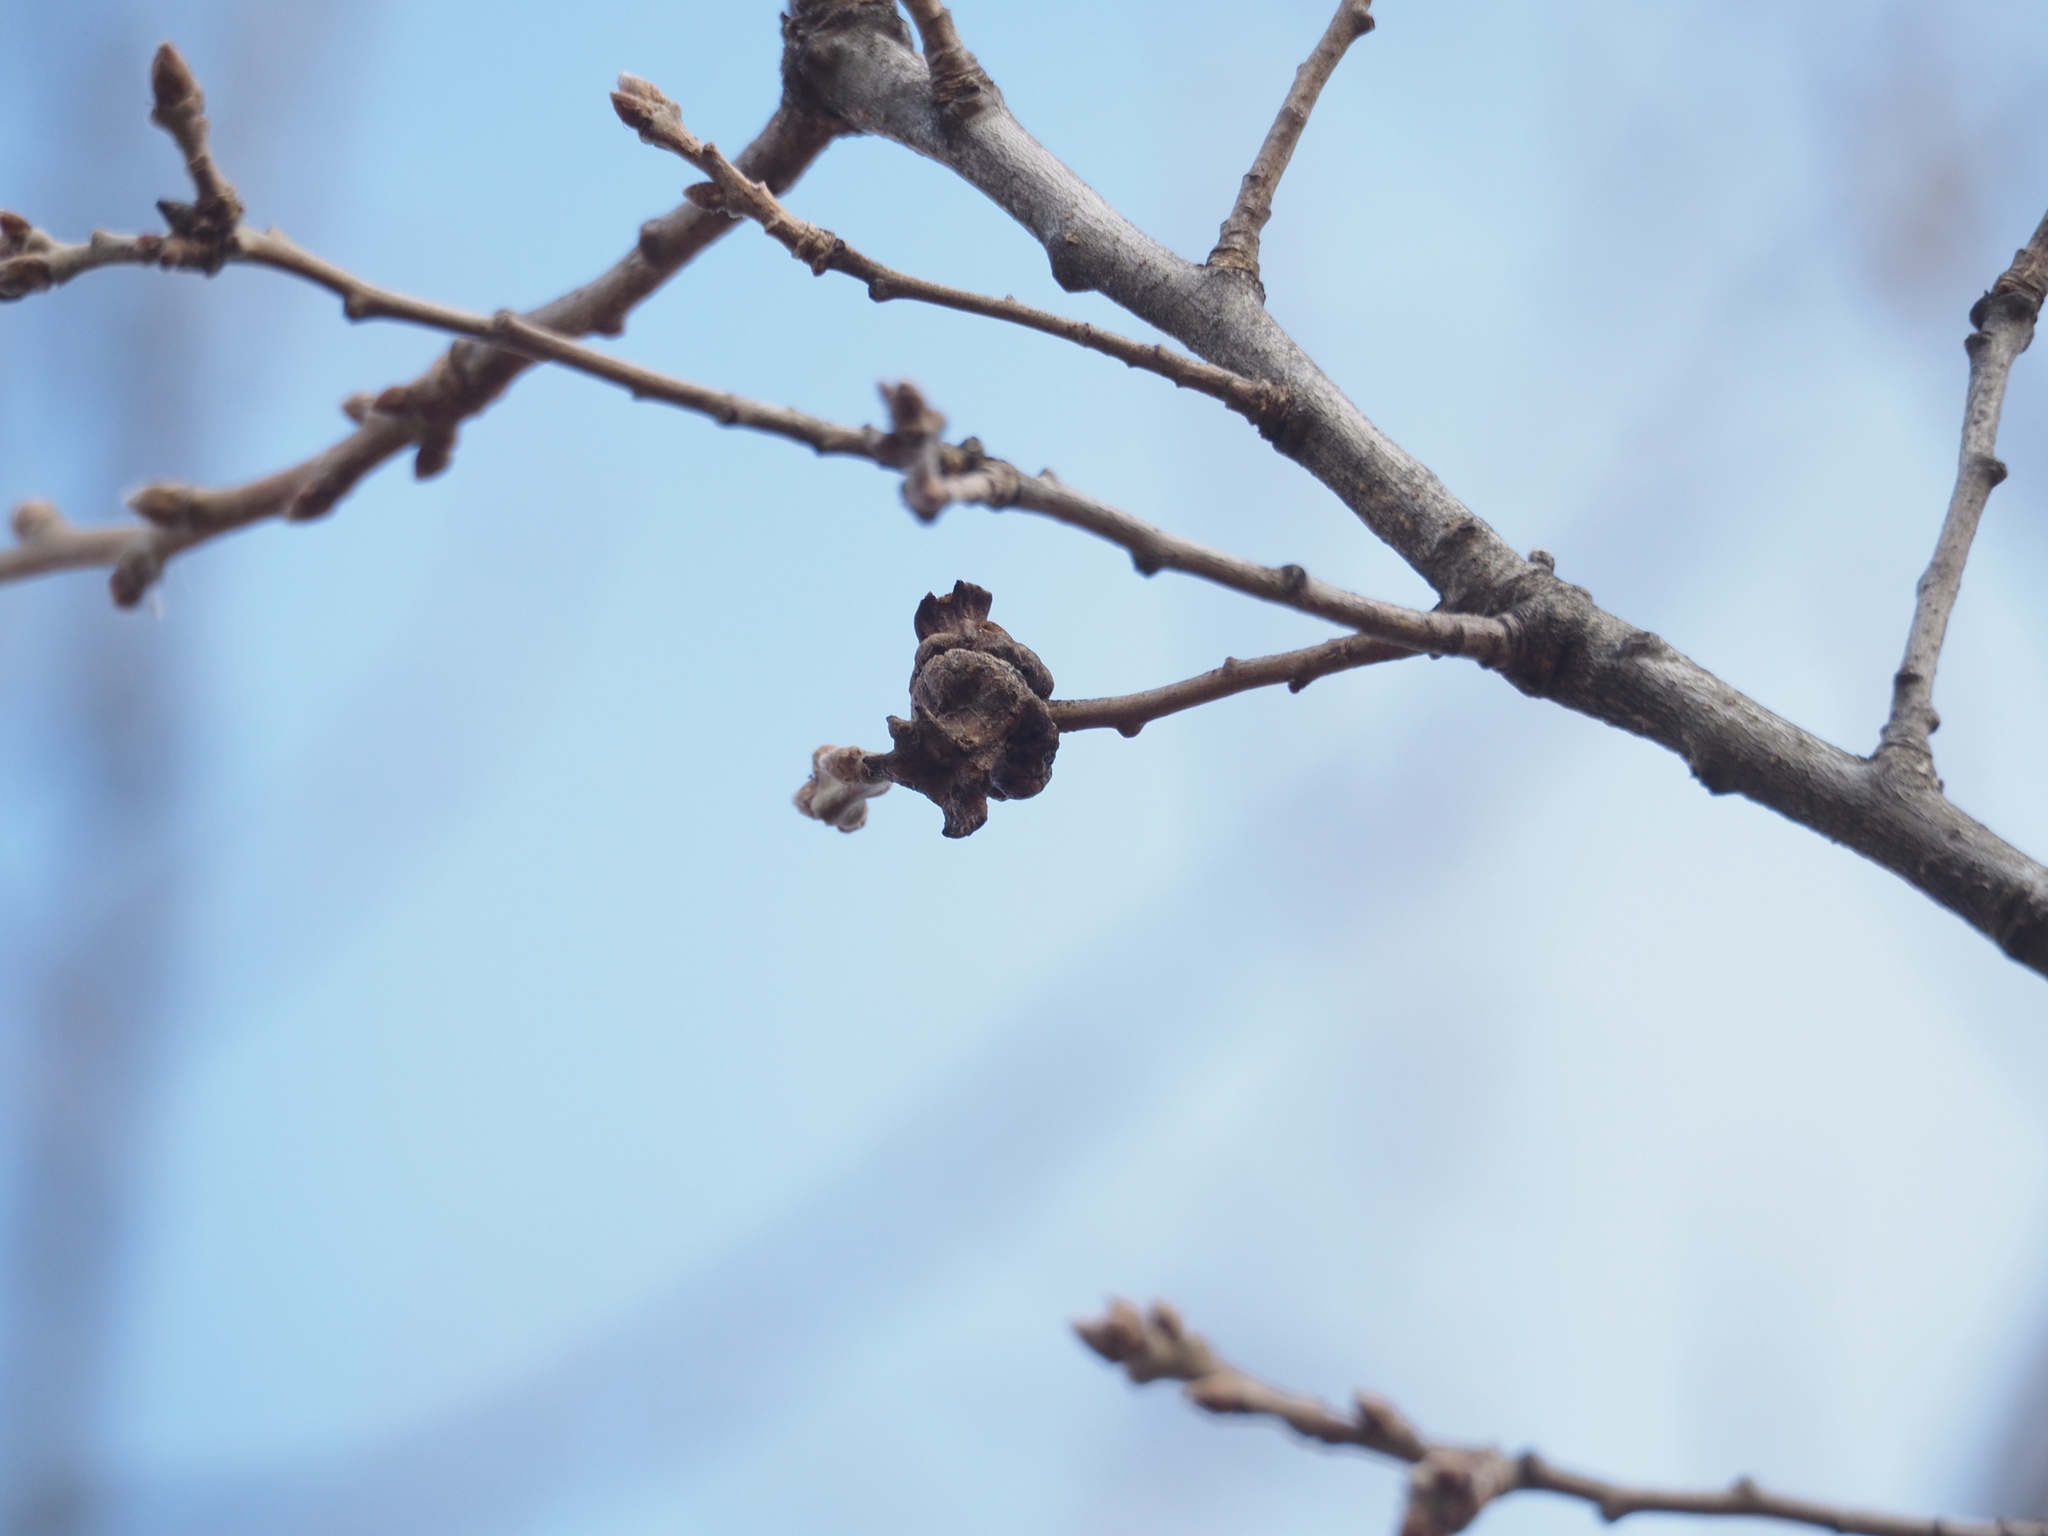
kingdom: Animalia
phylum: Arthropoda
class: Insecta
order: Hymenoptera
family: Cynipidae
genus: Andricus
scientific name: Andricus dentimitratus
